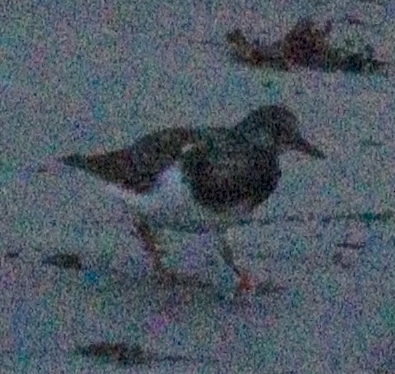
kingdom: Animalia
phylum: Chordata
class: Aves
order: Charadriiformes
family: Scolopacidae
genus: Arenaria
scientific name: Arenaria interpres
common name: Ruddy turnstone
